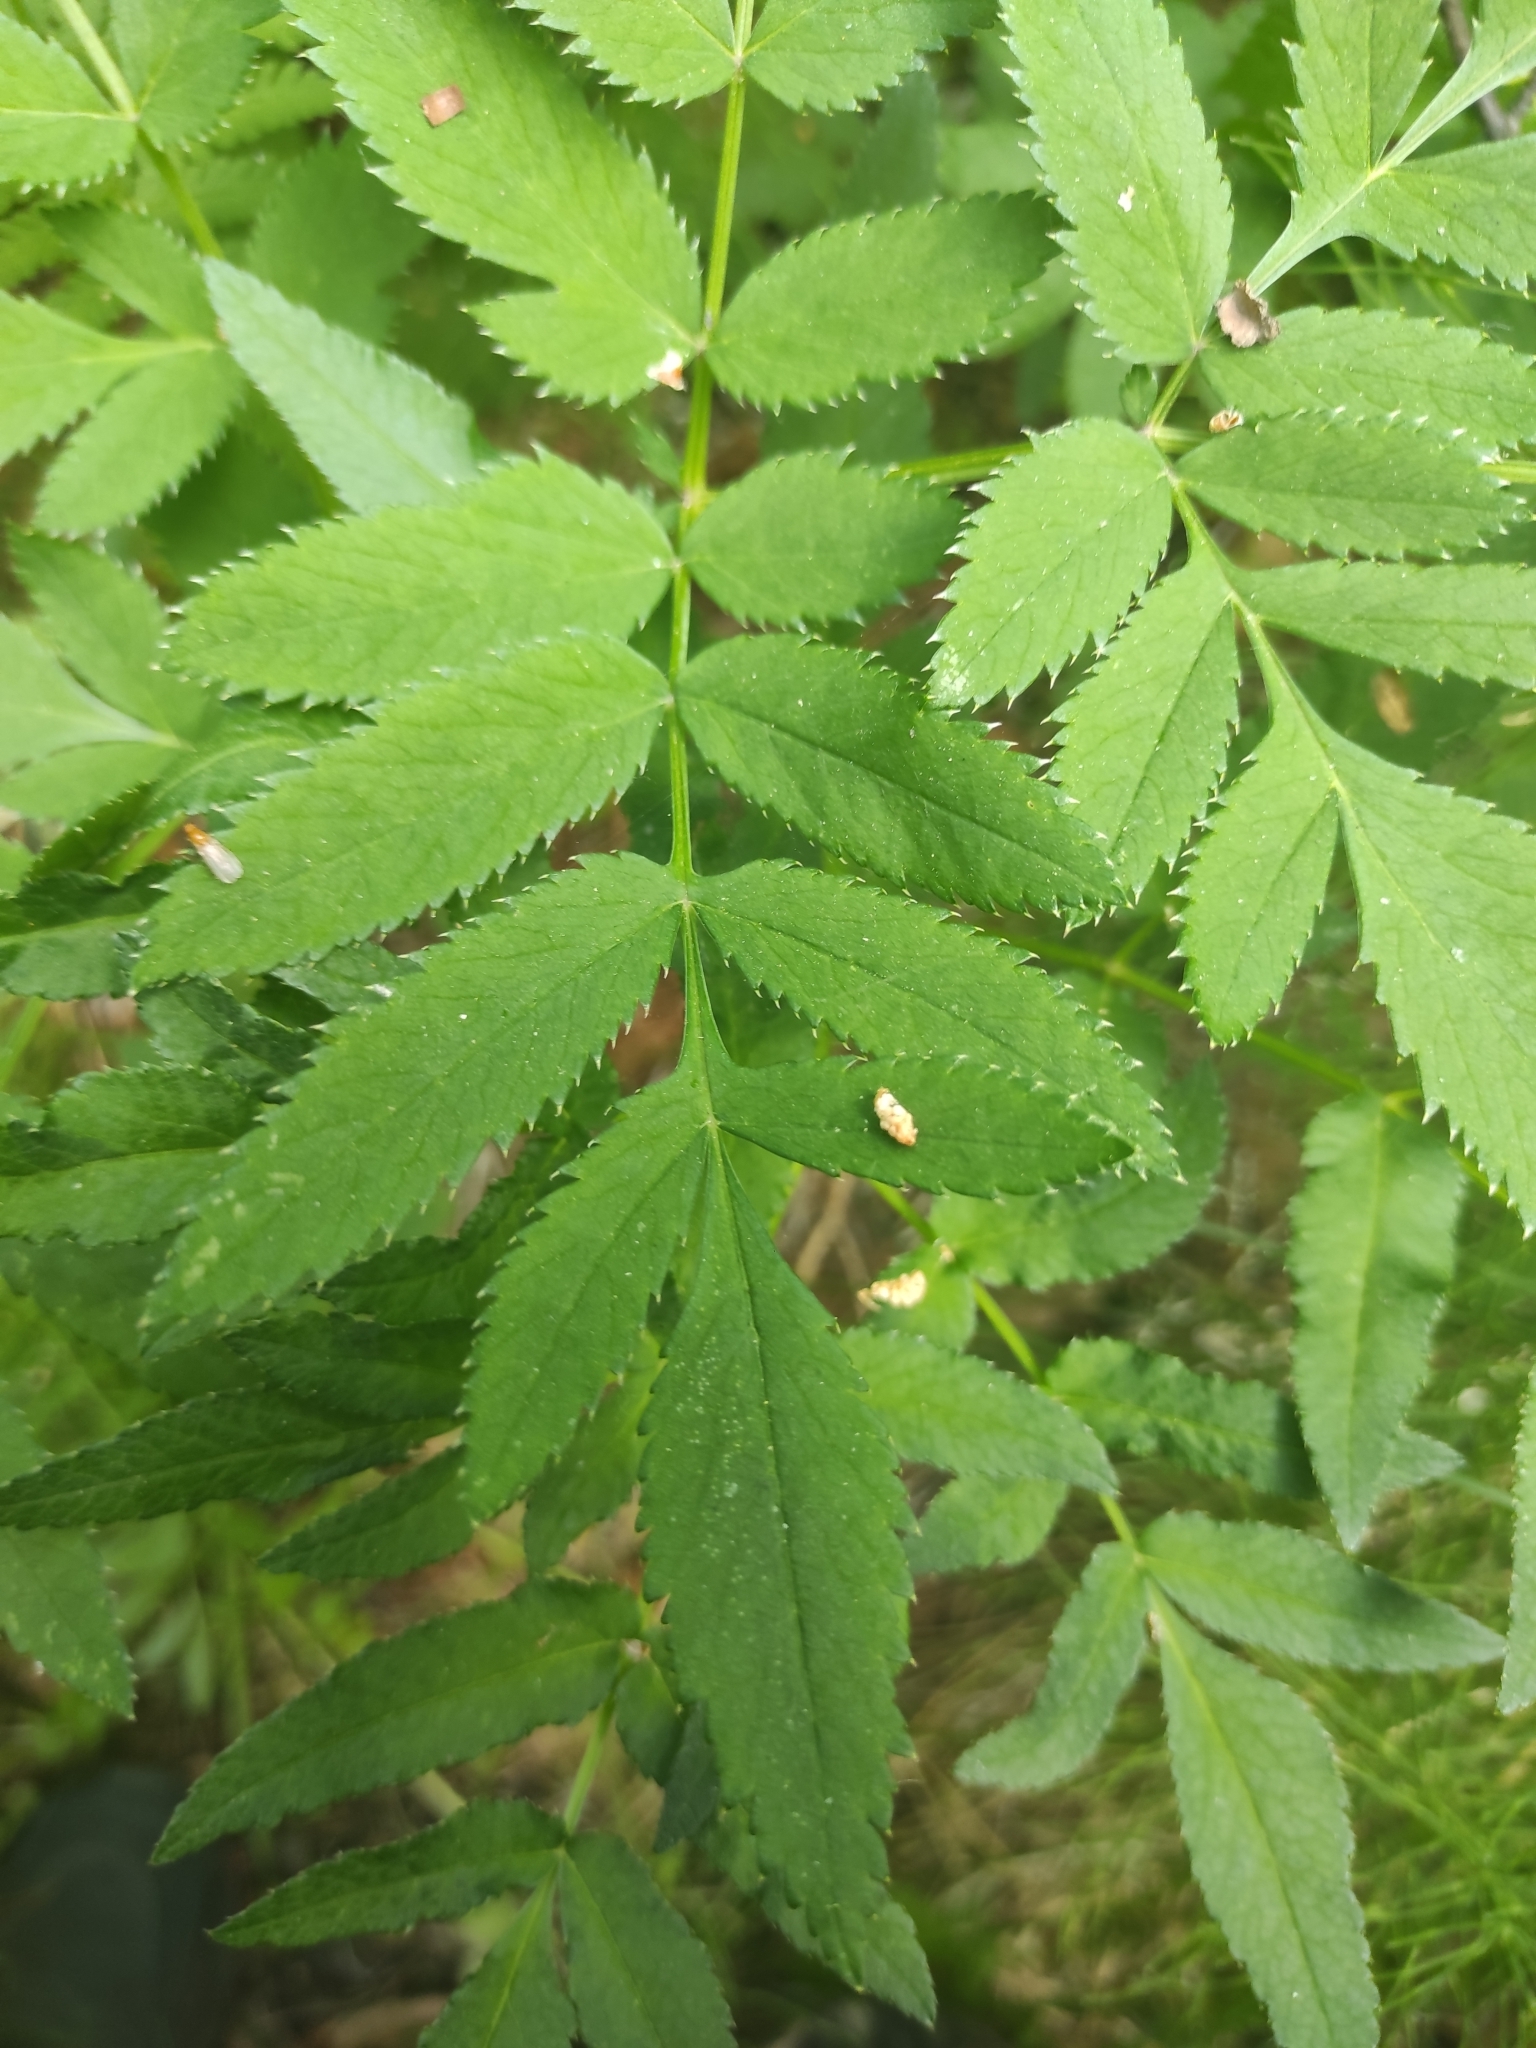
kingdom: Plantae
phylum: Tracheophyta
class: Magnoliopsida
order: Apiales
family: Apiaceae
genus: Angelica
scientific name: Angelica sylvestris
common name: Wild angelica
